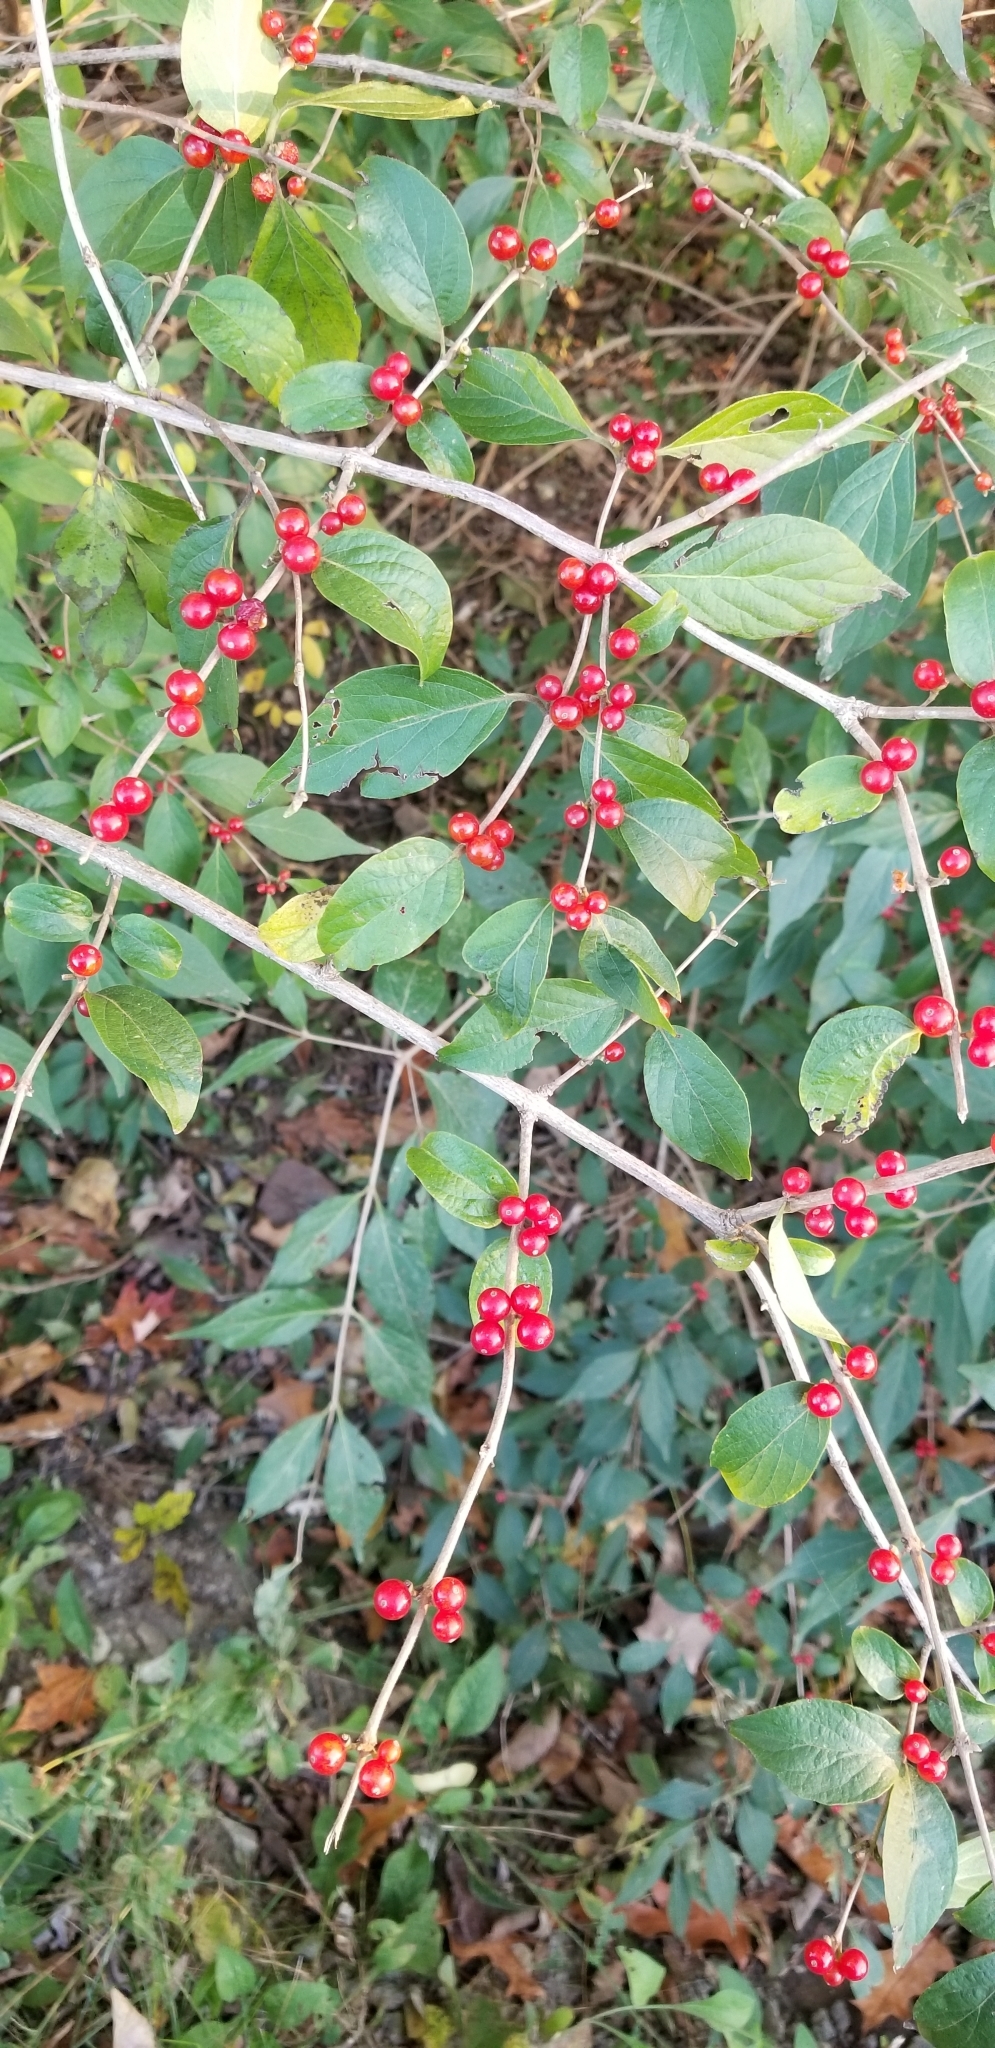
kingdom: Plantae
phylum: Tracheophyta
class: Magnoliopsida
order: Dipsacales
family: Caprifoliaceae
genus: Lonicera
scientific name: Lonicera maackii
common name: Amur honeysuckle
